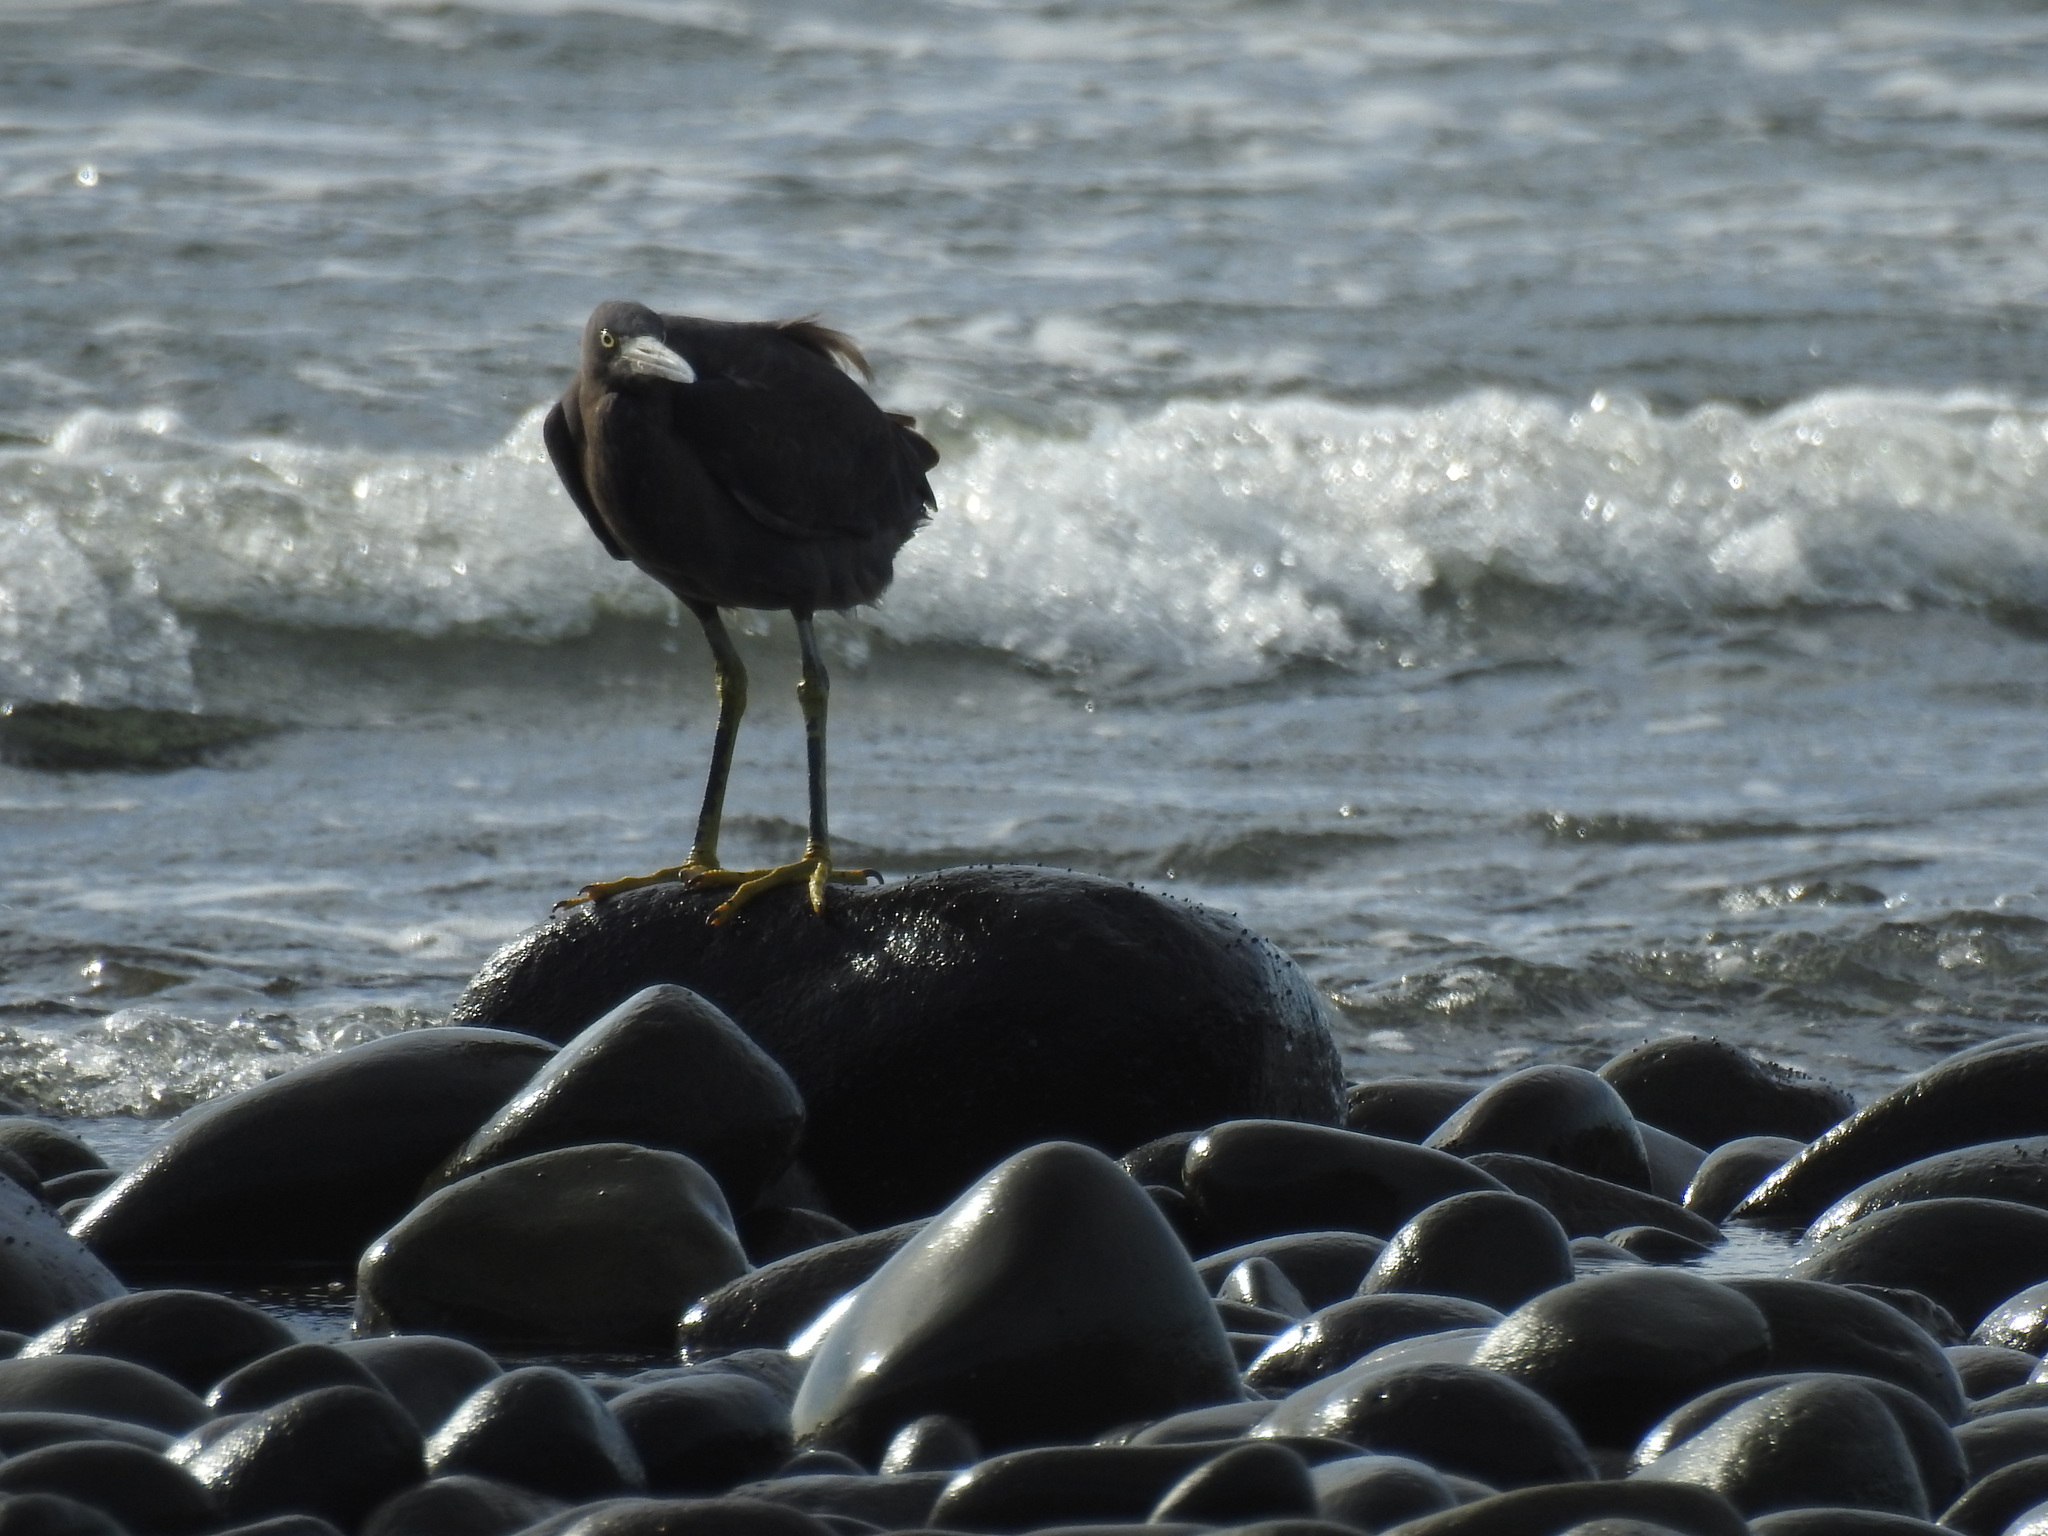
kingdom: Animalia
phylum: Chordata
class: Aves
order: Pelecaniformes
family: Ardeidae
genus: Egretta
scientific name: Egretta sacra
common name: Pacific reef heron
